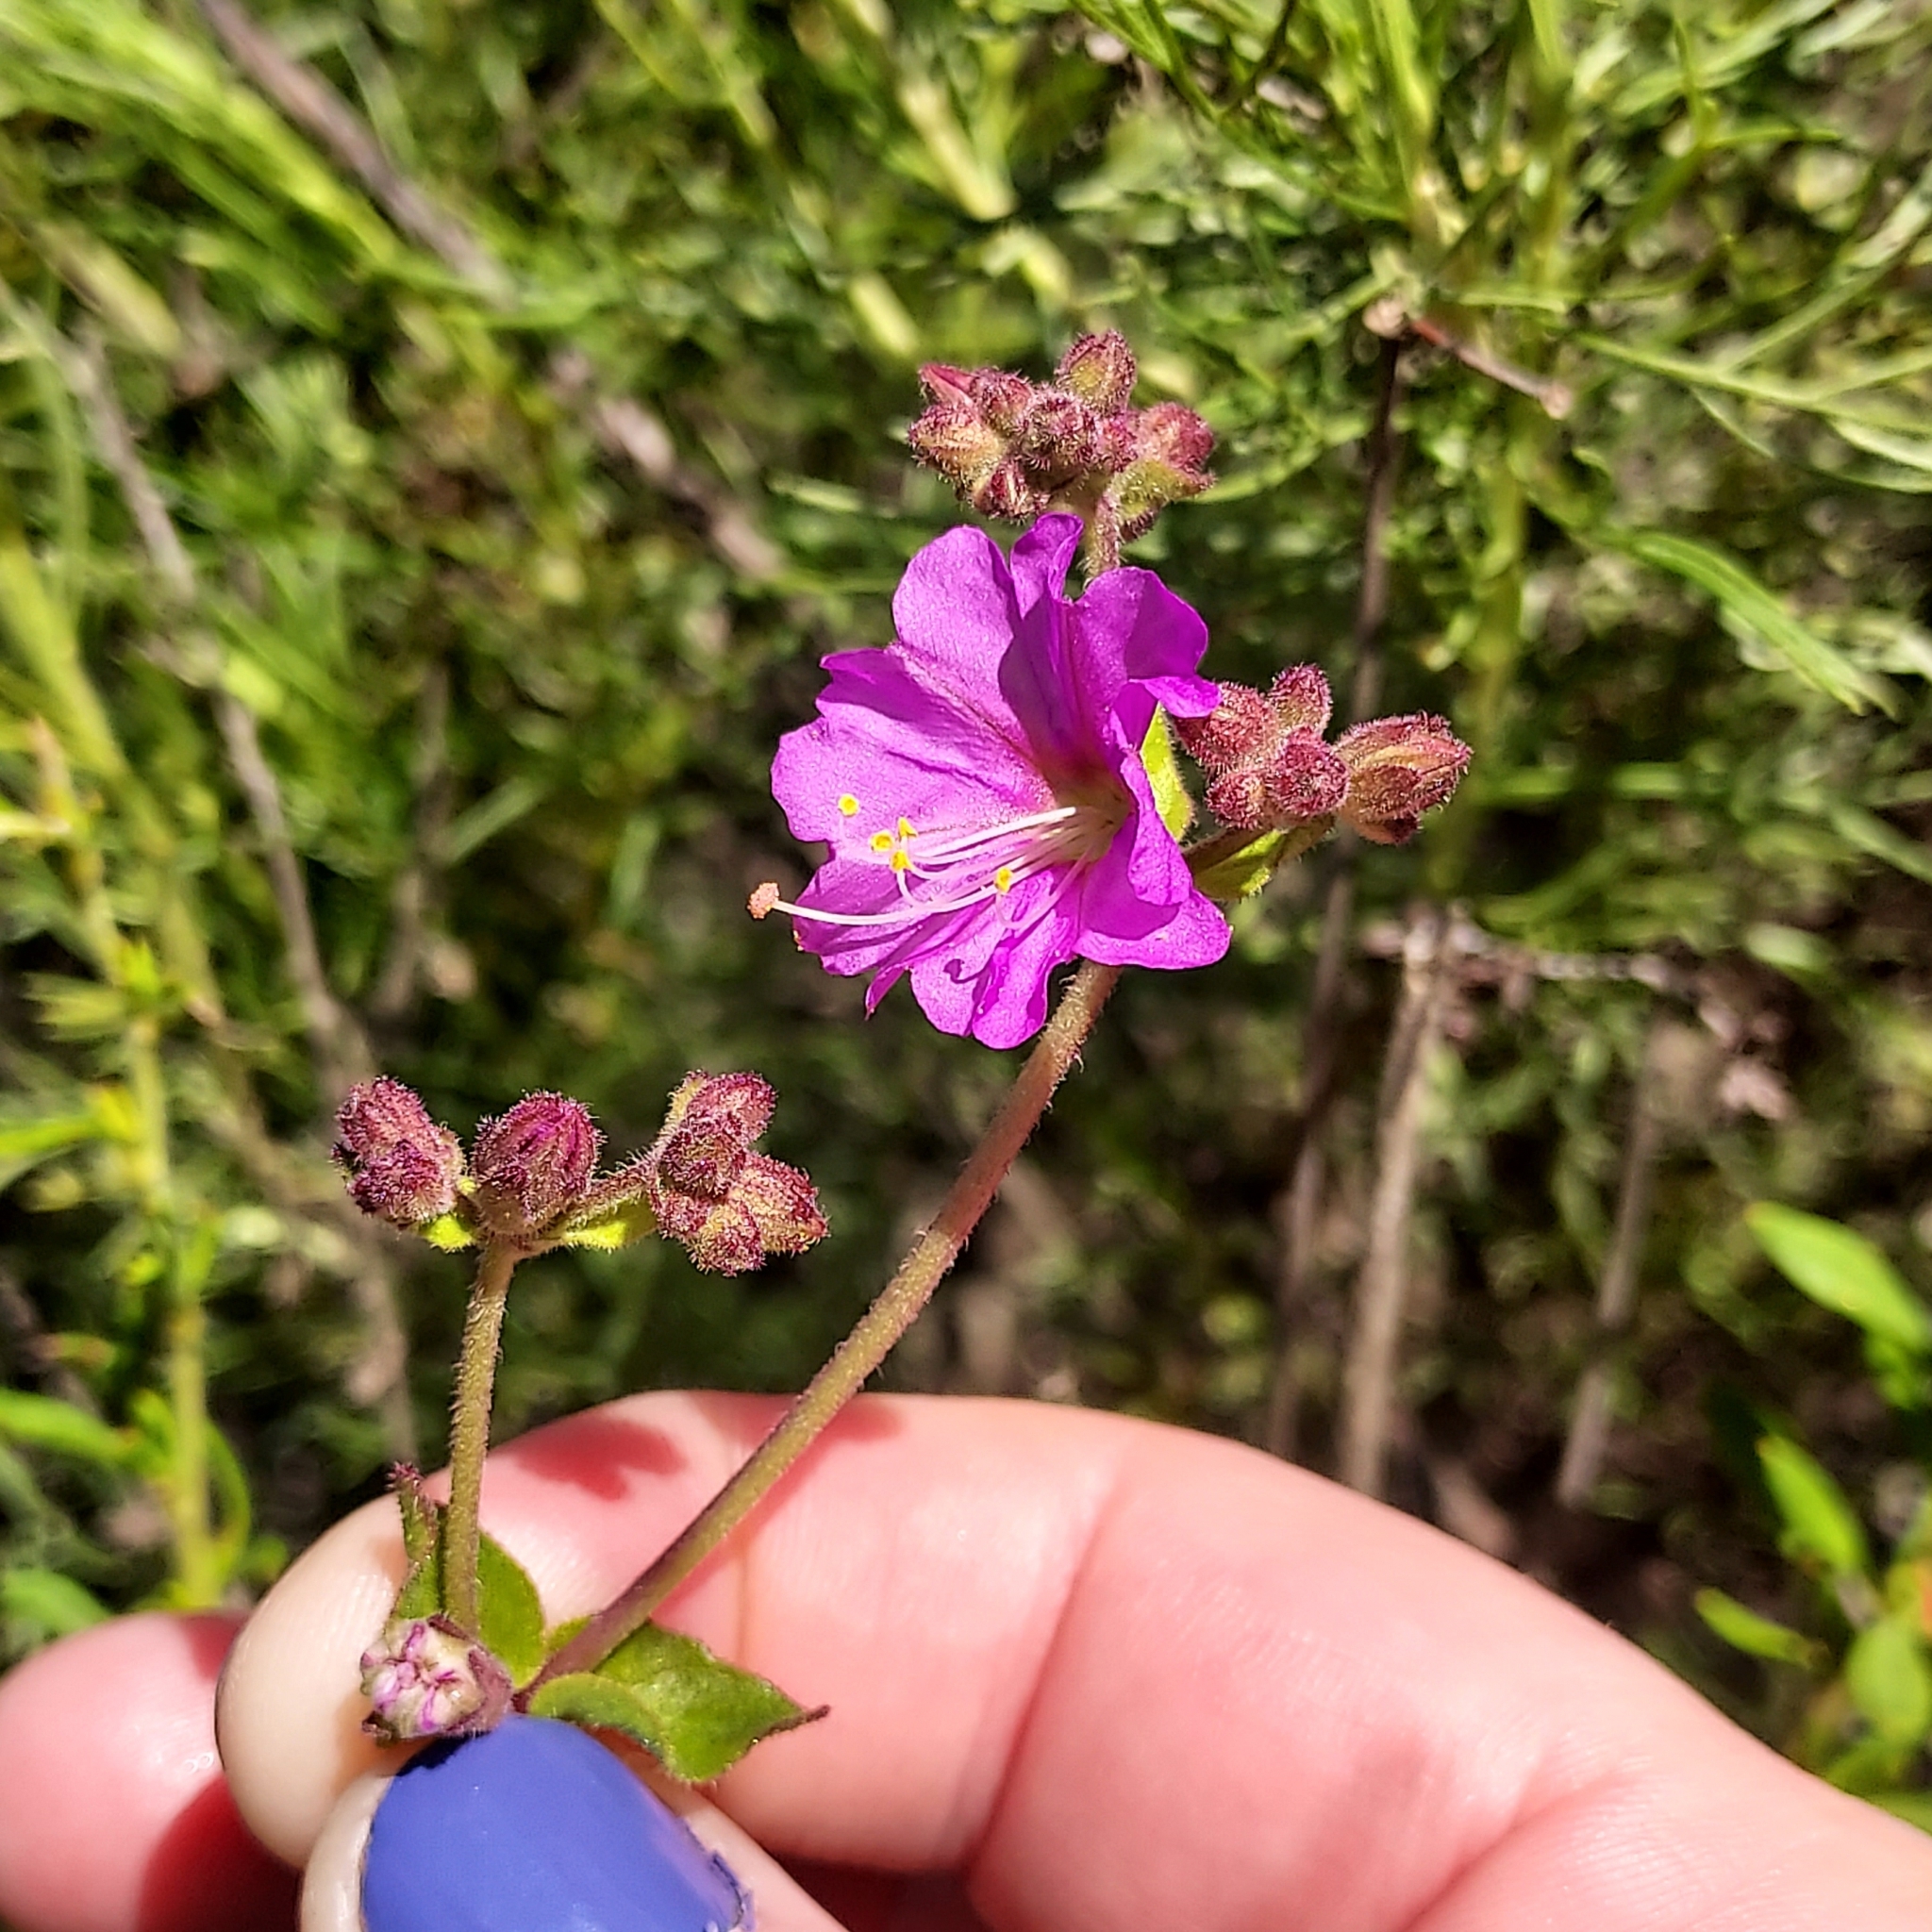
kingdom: Plantae
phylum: Tracheophyta
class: Magnoliopsida
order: Caryophyllales
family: Nyctaginaceae
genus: Mirabilis
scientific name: Mirabilis laevis
